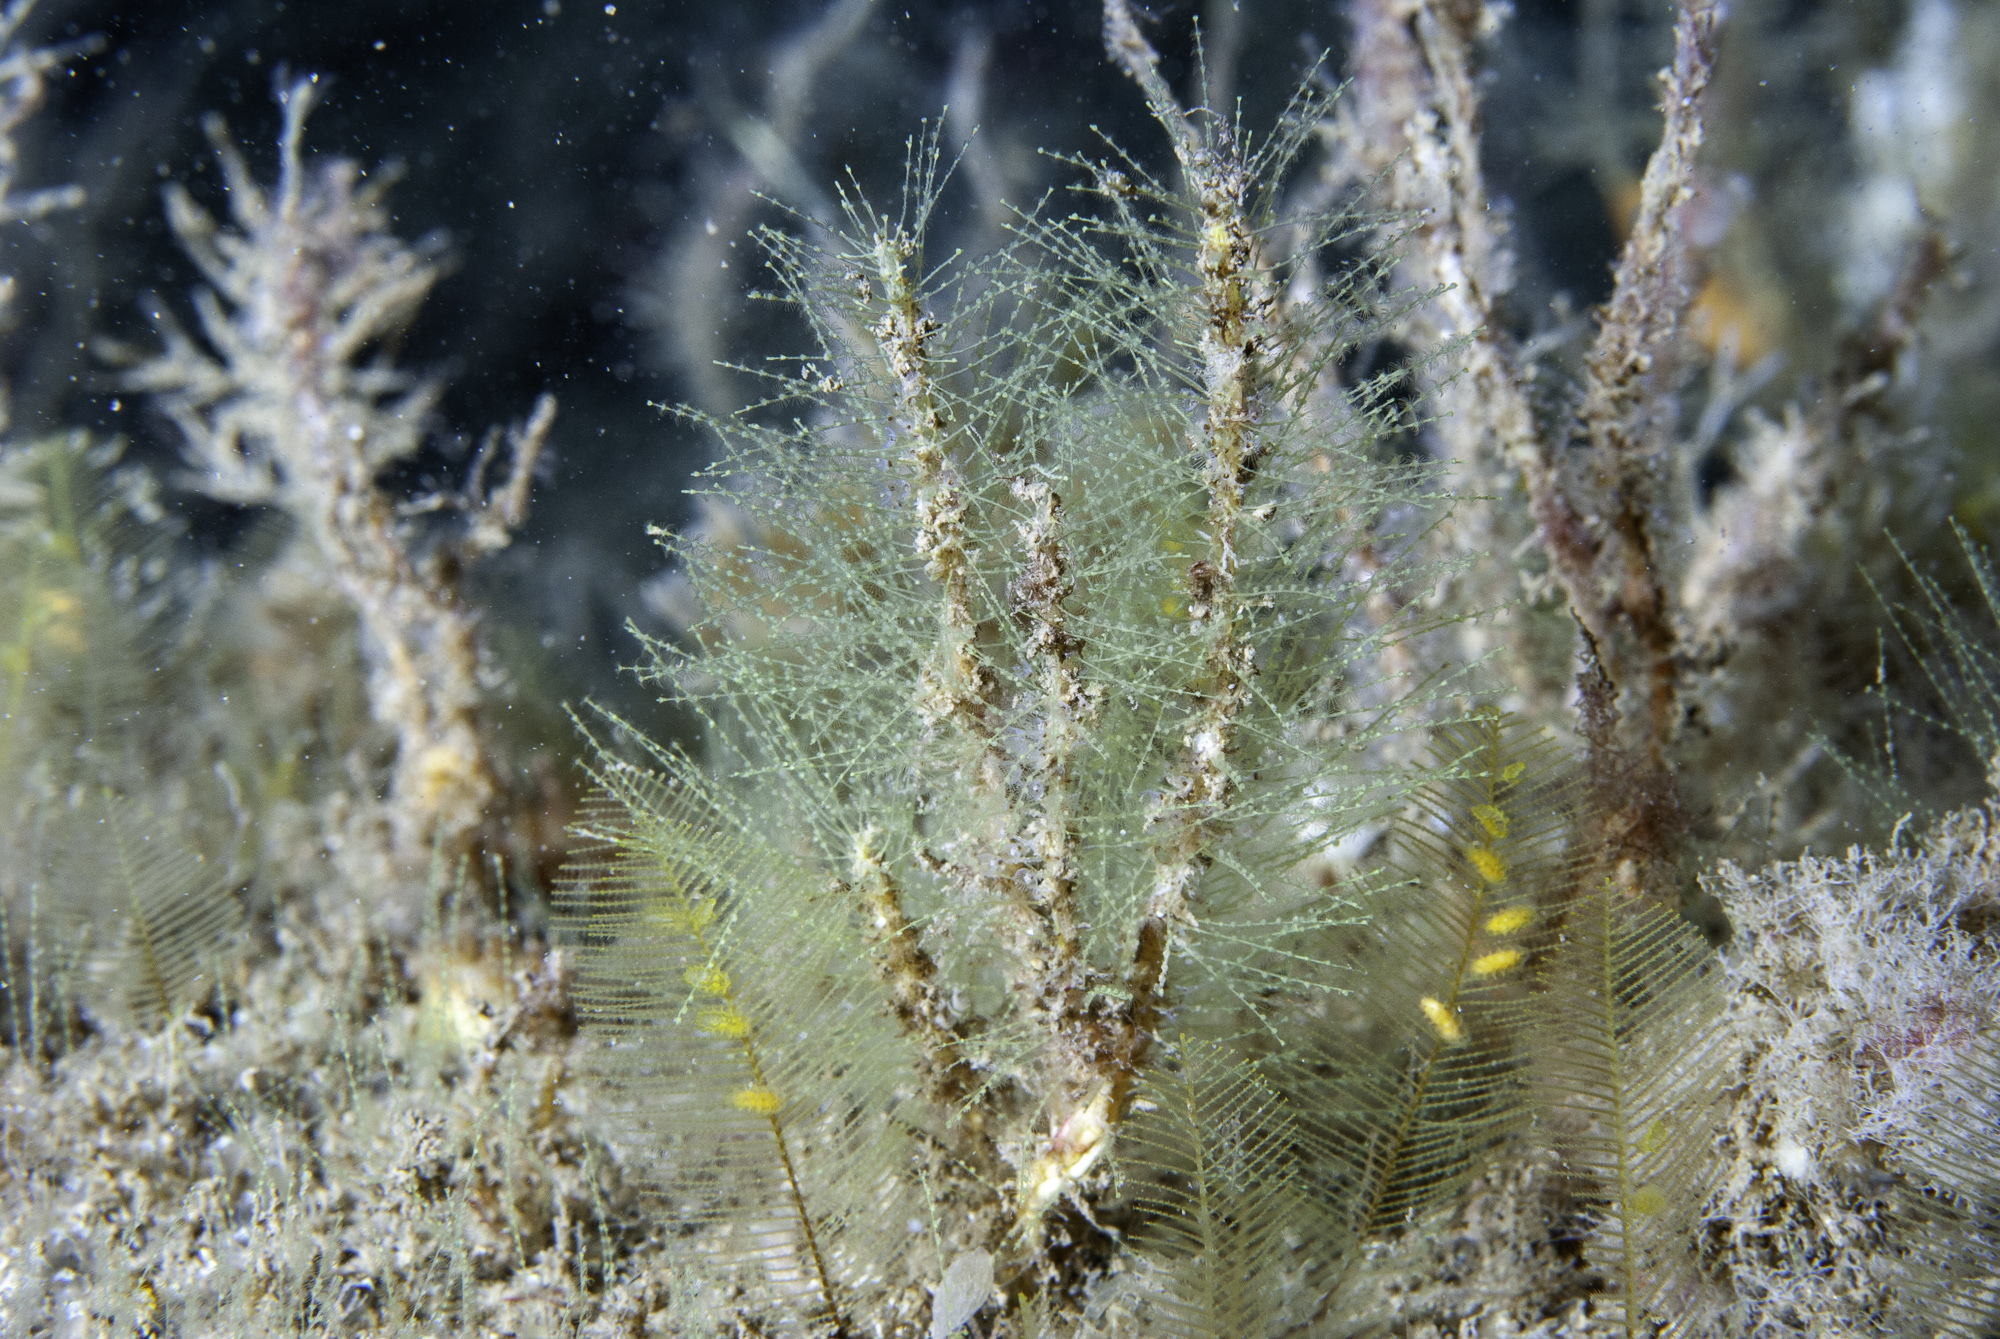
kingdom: Animalia
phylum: Cnidaria
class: Hydrozoa
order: Leptothecata
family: Halopterididae
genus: Antennella
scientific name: Antennella secundaria
